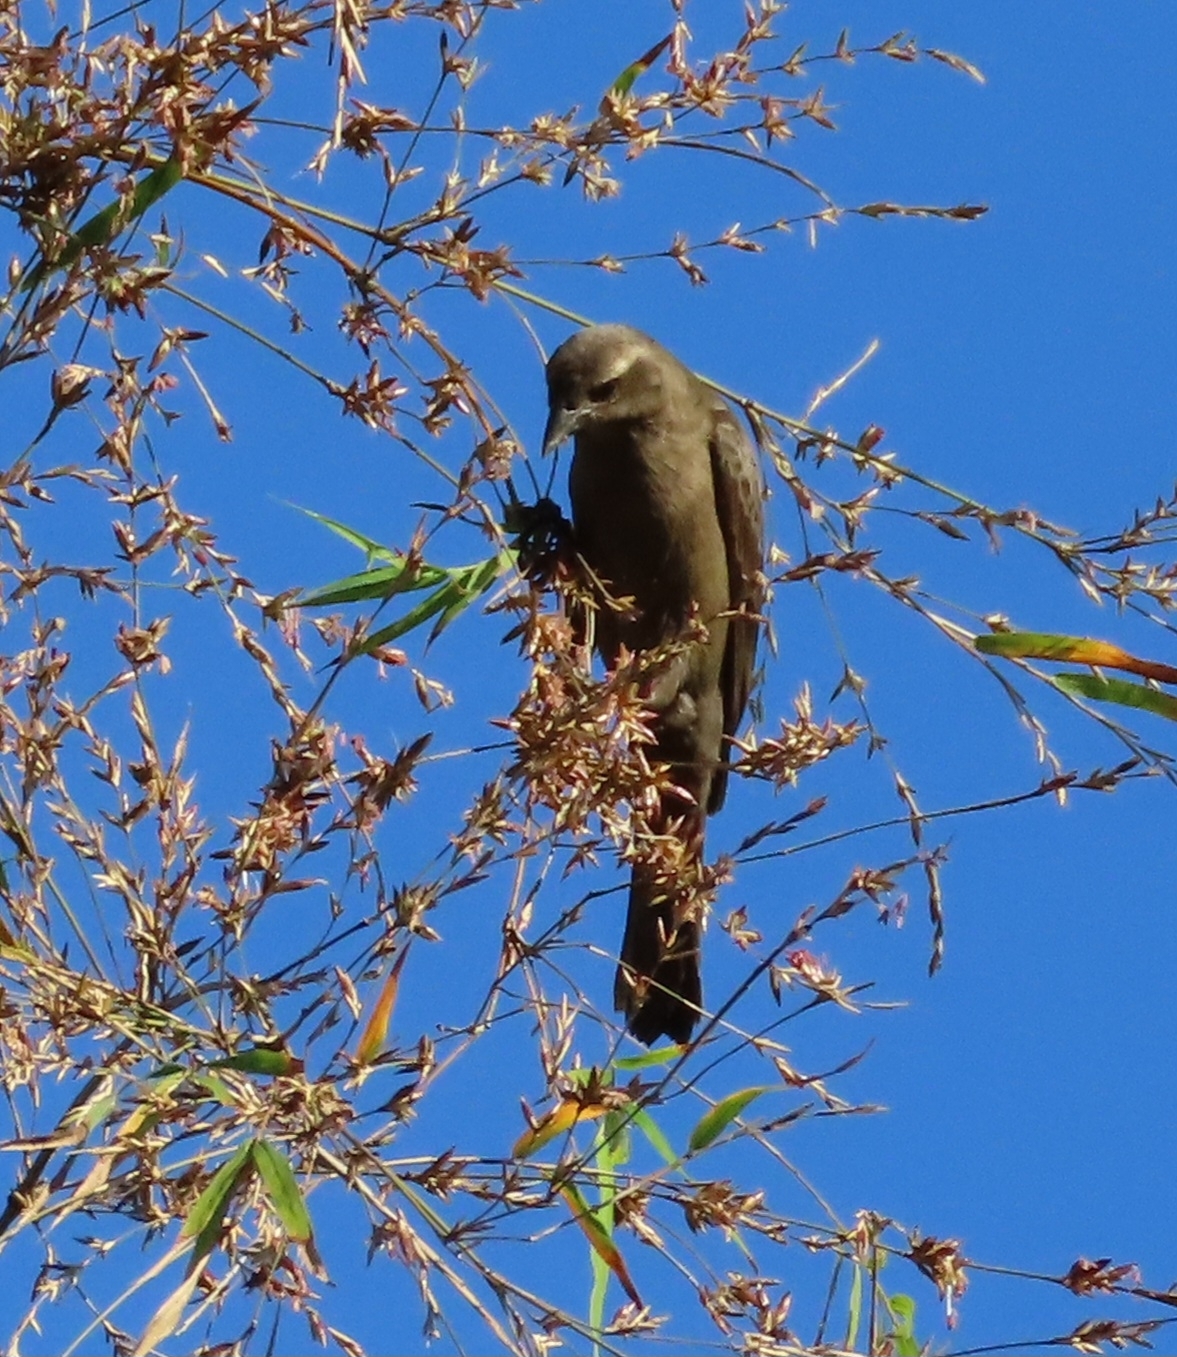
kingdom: Animalia
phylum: Chordata
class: Aves
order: Passeriformes
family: Icteridae
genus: Molothrus
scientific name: Molothrus bonariensis
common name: Shiny cowbird
